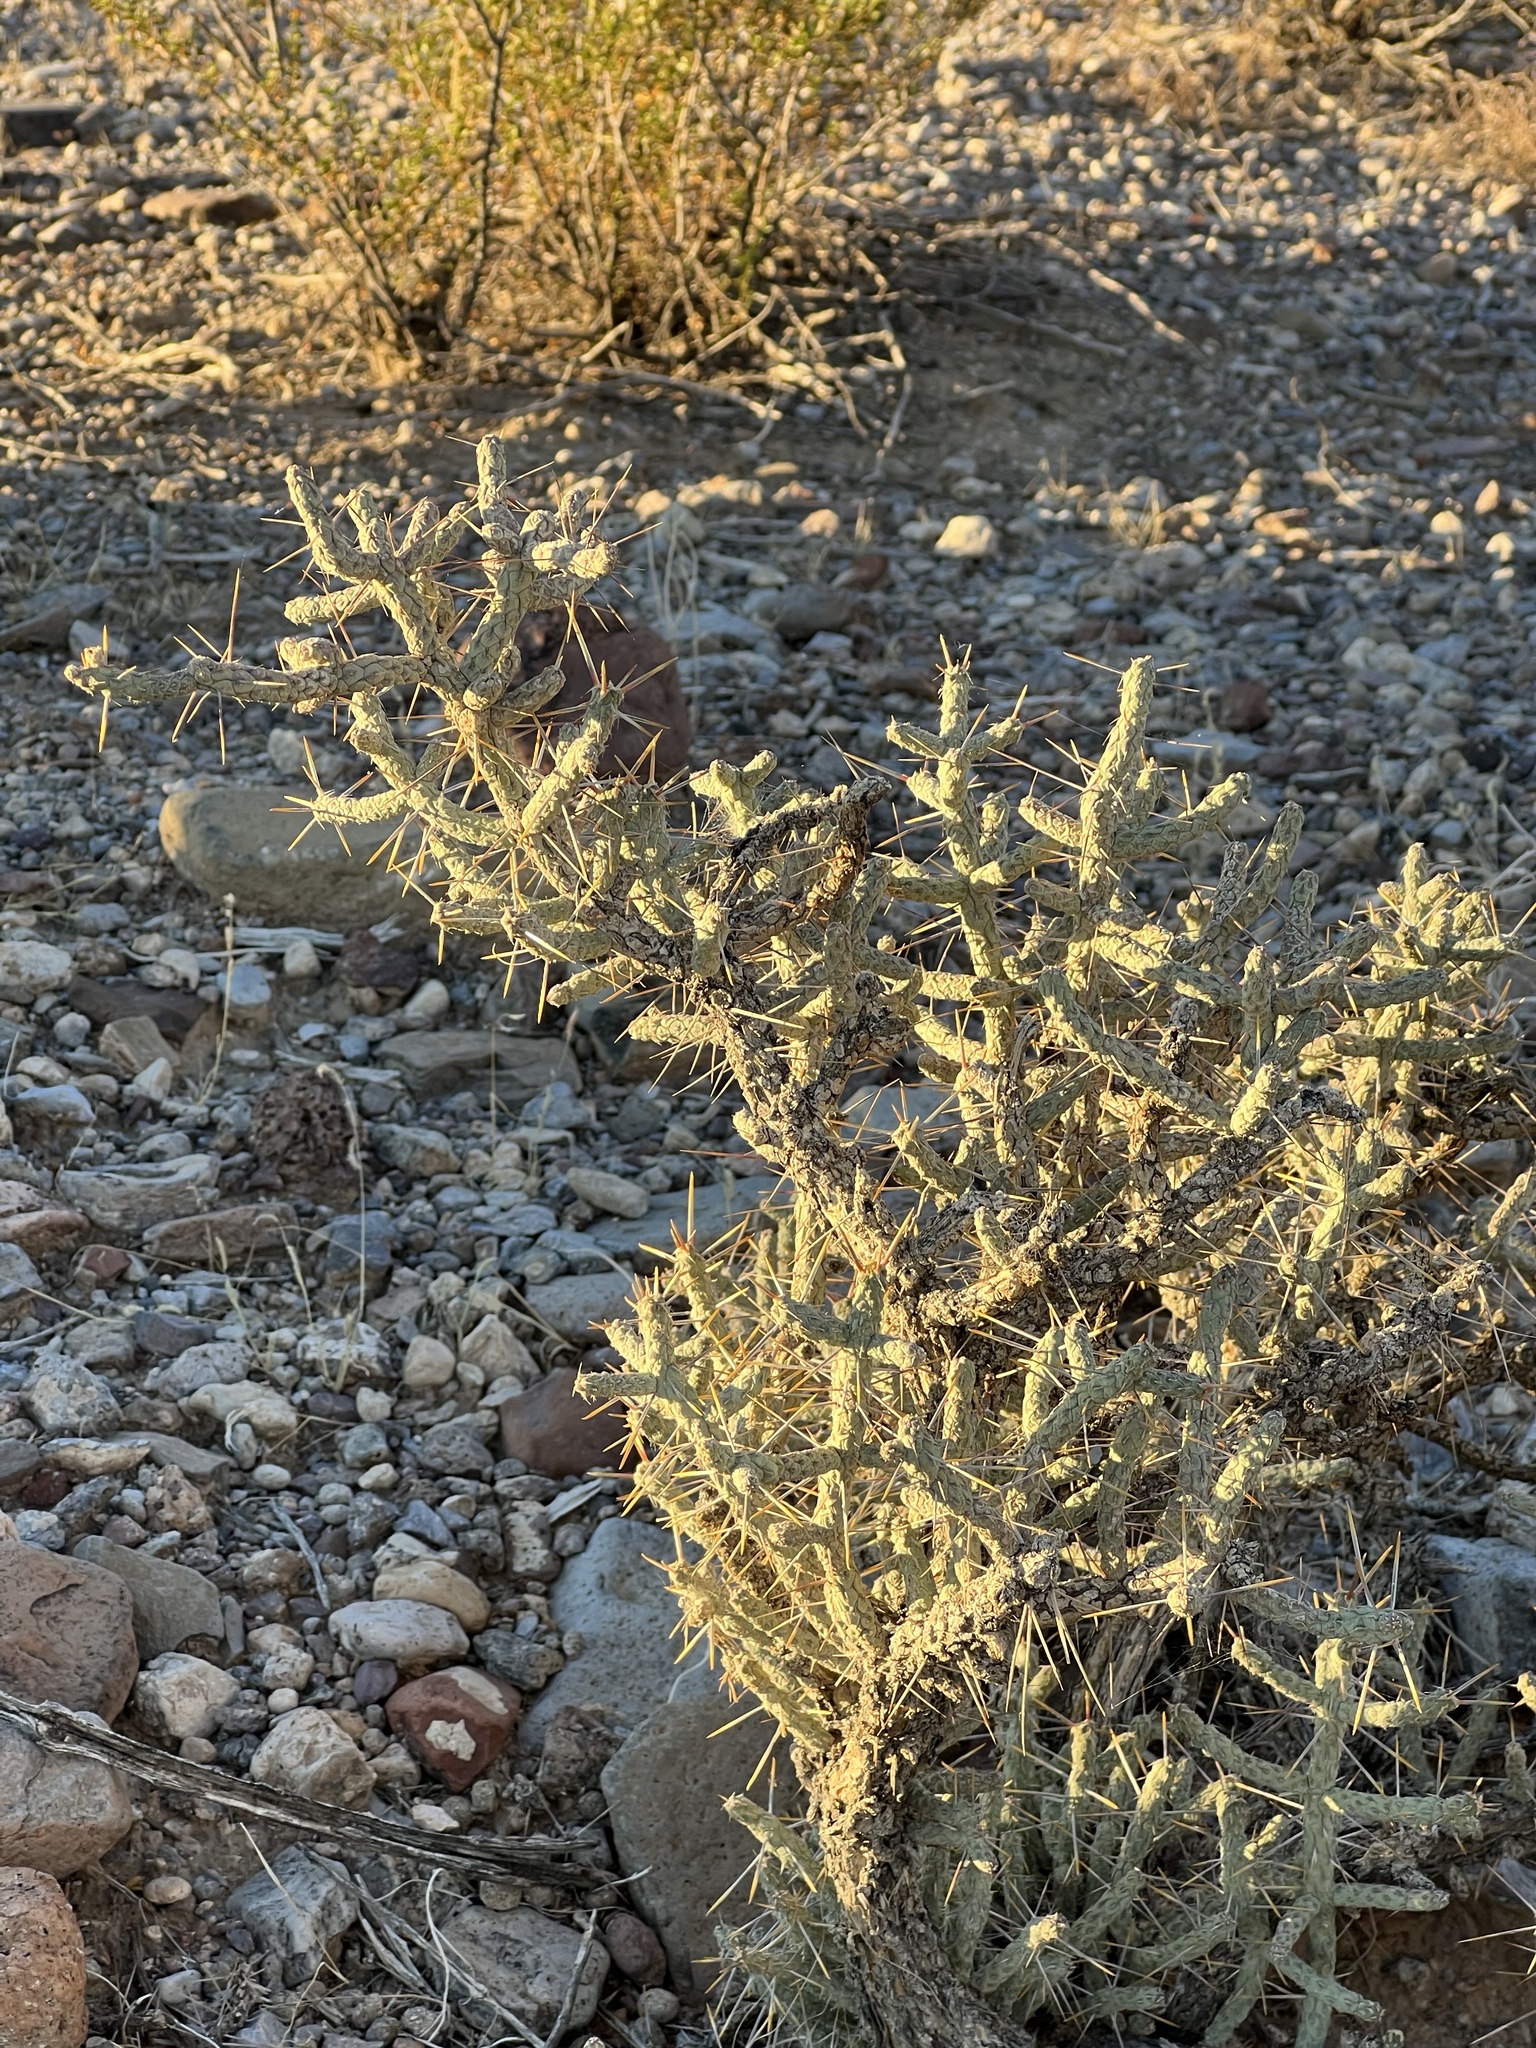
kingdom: Plantae
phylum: Tracheophyta
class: Magnoliopsida
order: Caryophyllales
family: Cactaceae
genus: Cylindropuntia
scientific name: Cylindropuntia ramosissima
